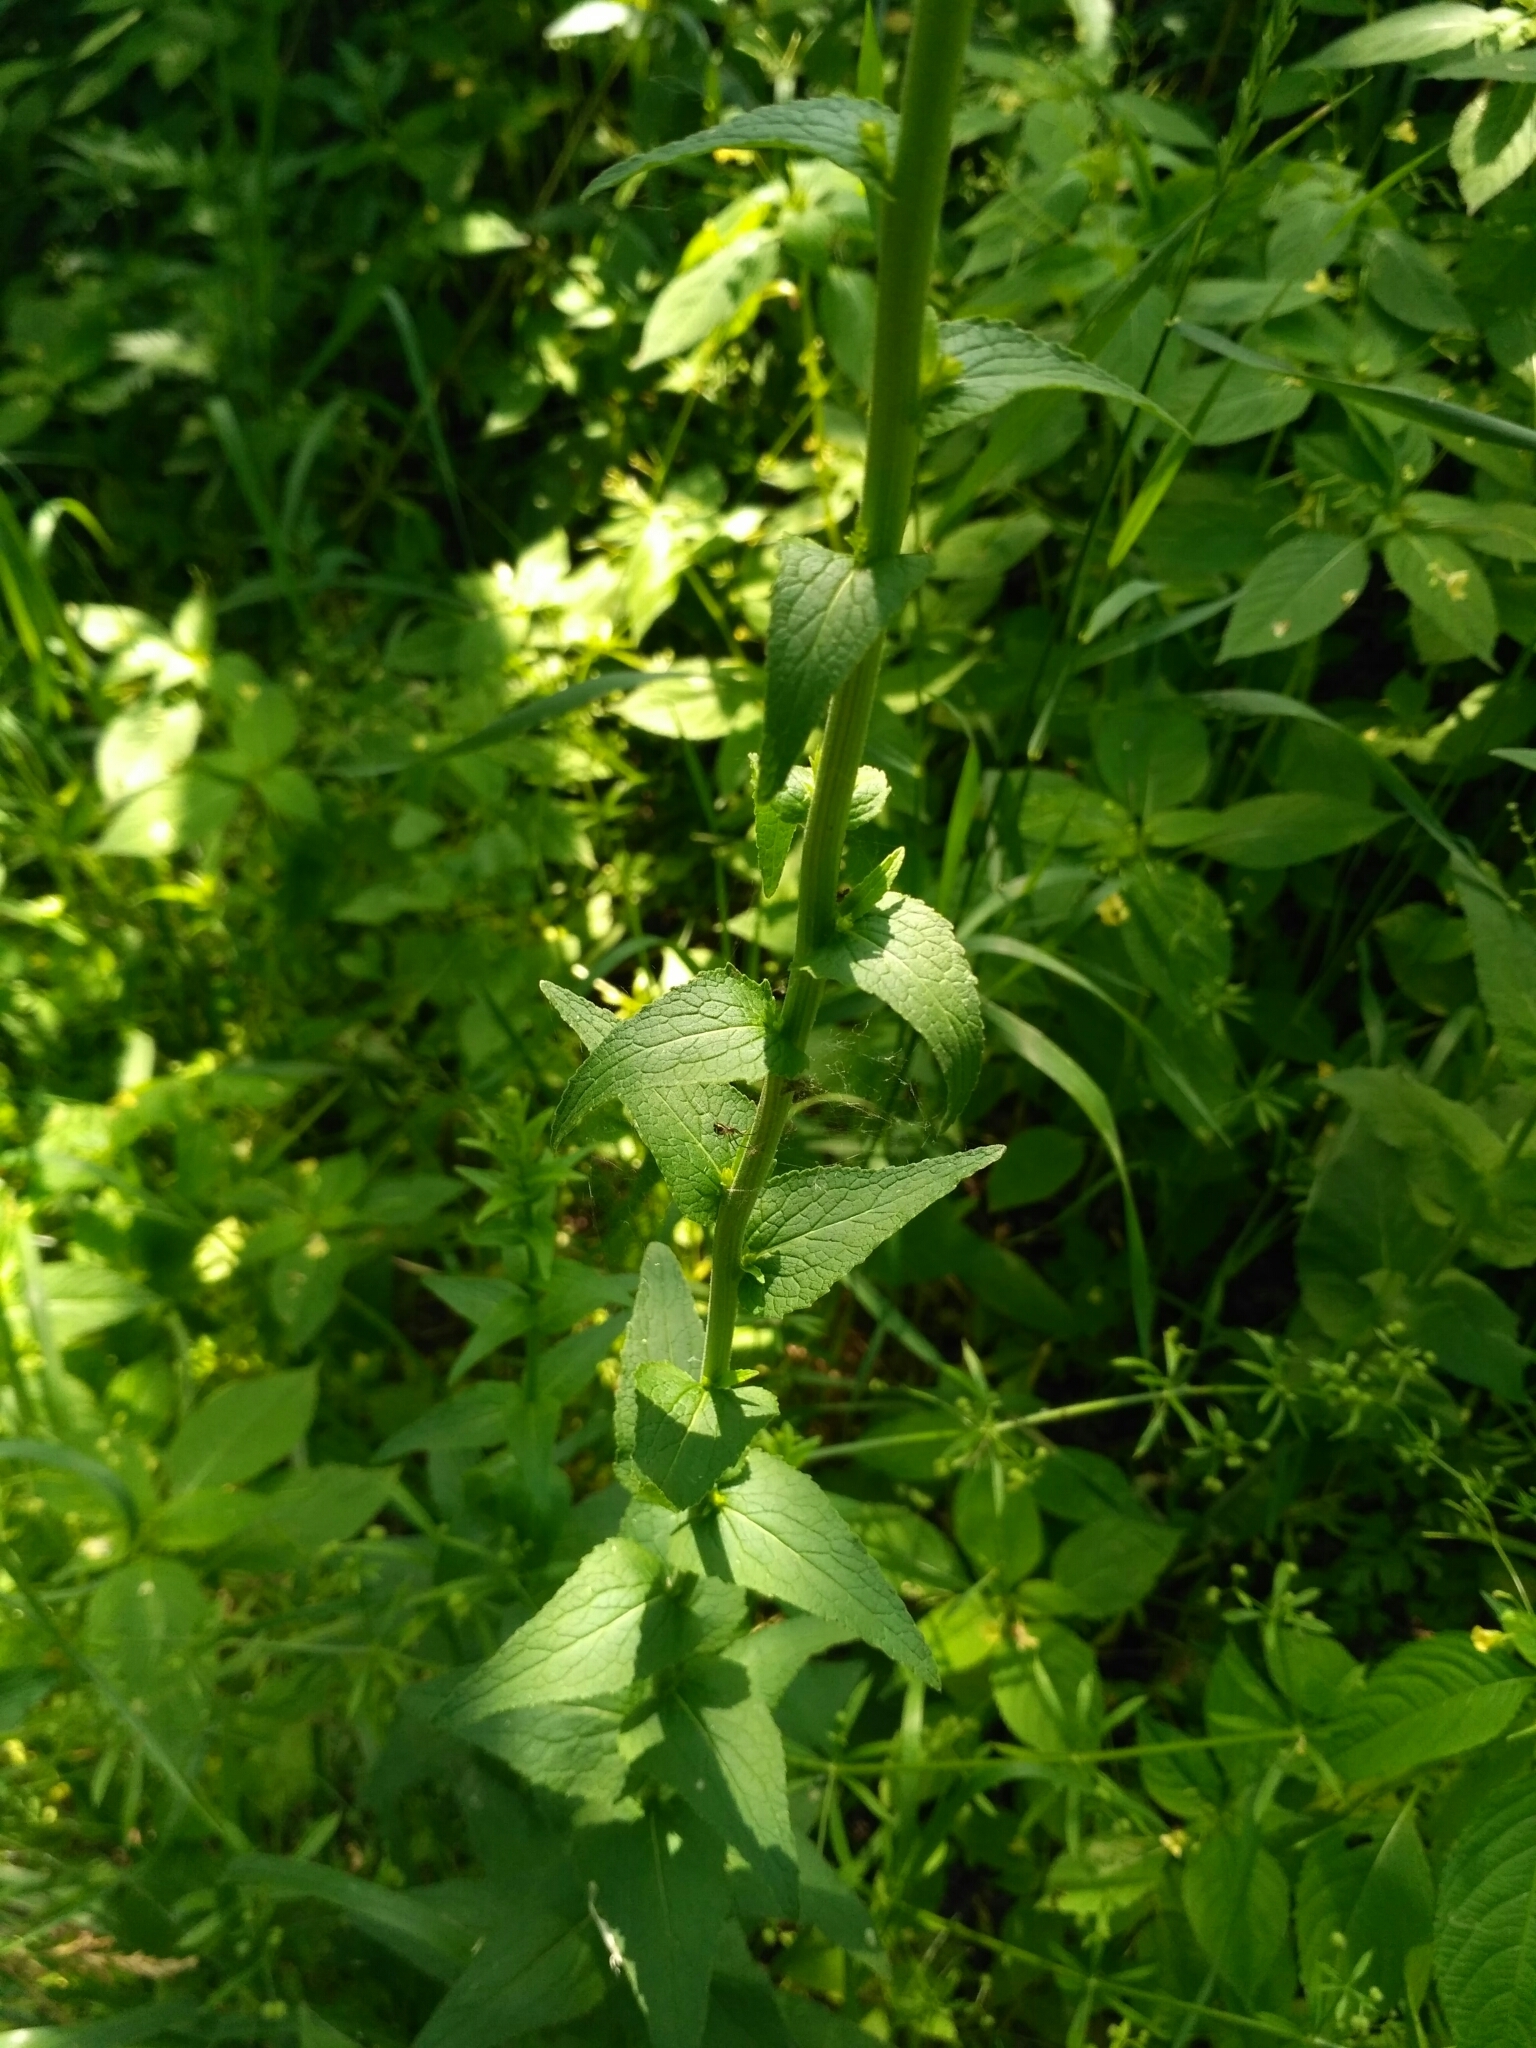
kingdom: Plantae
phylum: Tracheophyta
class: Magnoliopsida
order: Asterales
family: Campanulaceae
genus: Campanula
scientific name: Campanula rapunculoides
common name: Creeping bellflower
